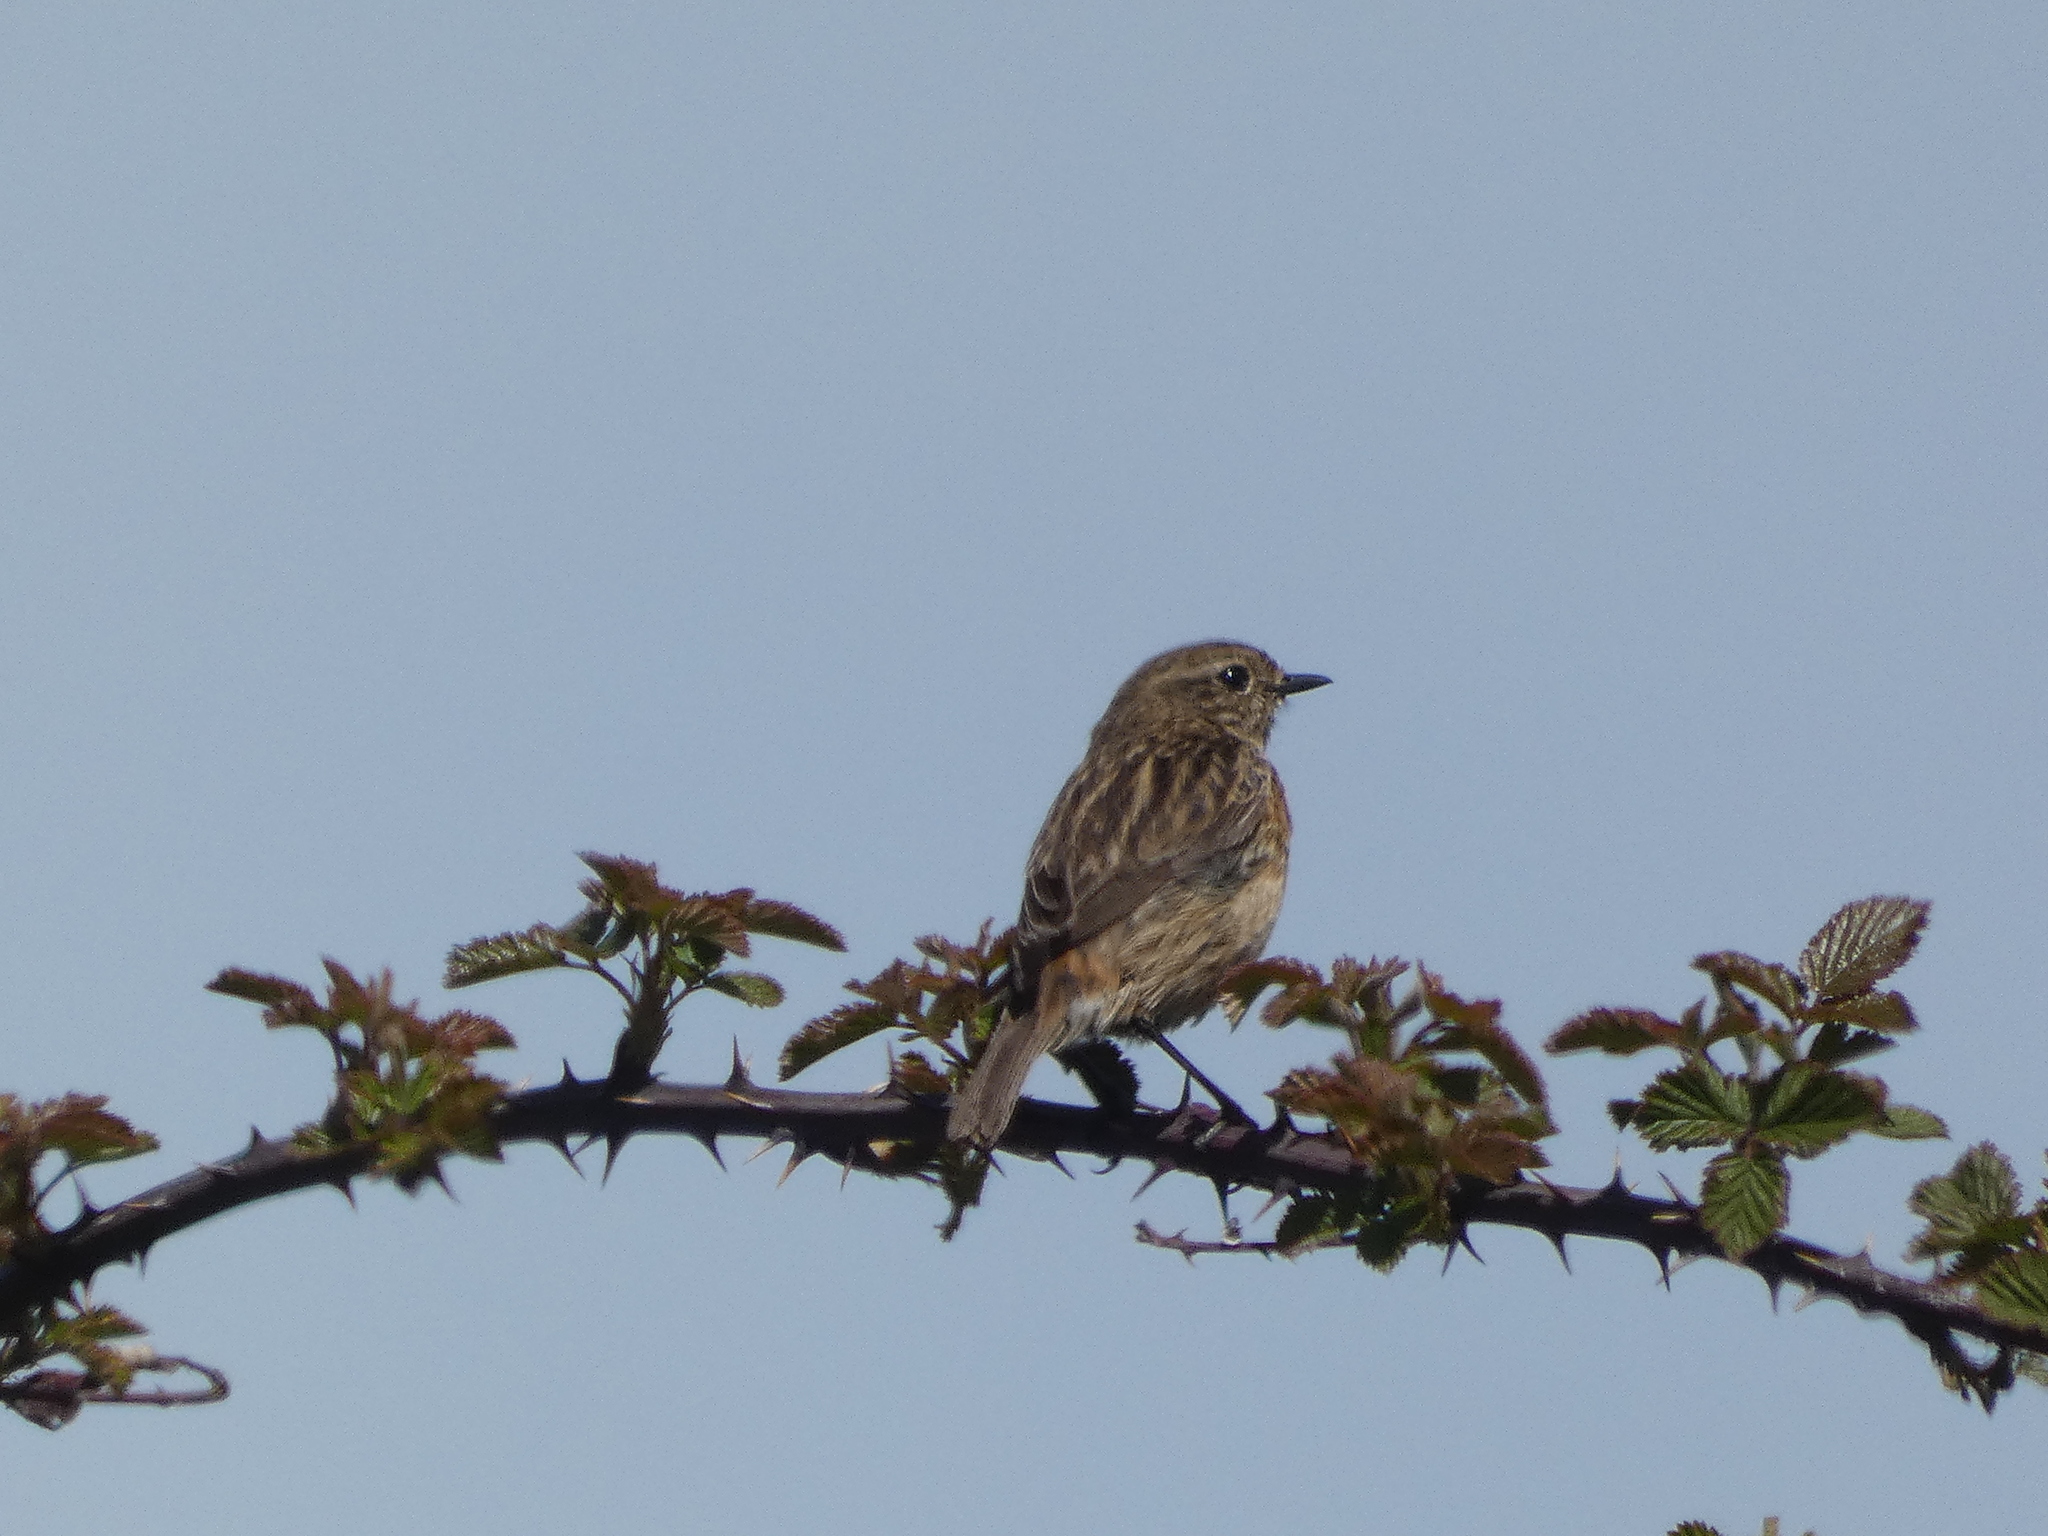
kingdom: Animalia
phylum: Chordata
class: Aves
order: Passeriformes
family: Muscicapidae
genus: Saxicola
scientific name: Saxicola rubicola
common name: European stonechat
